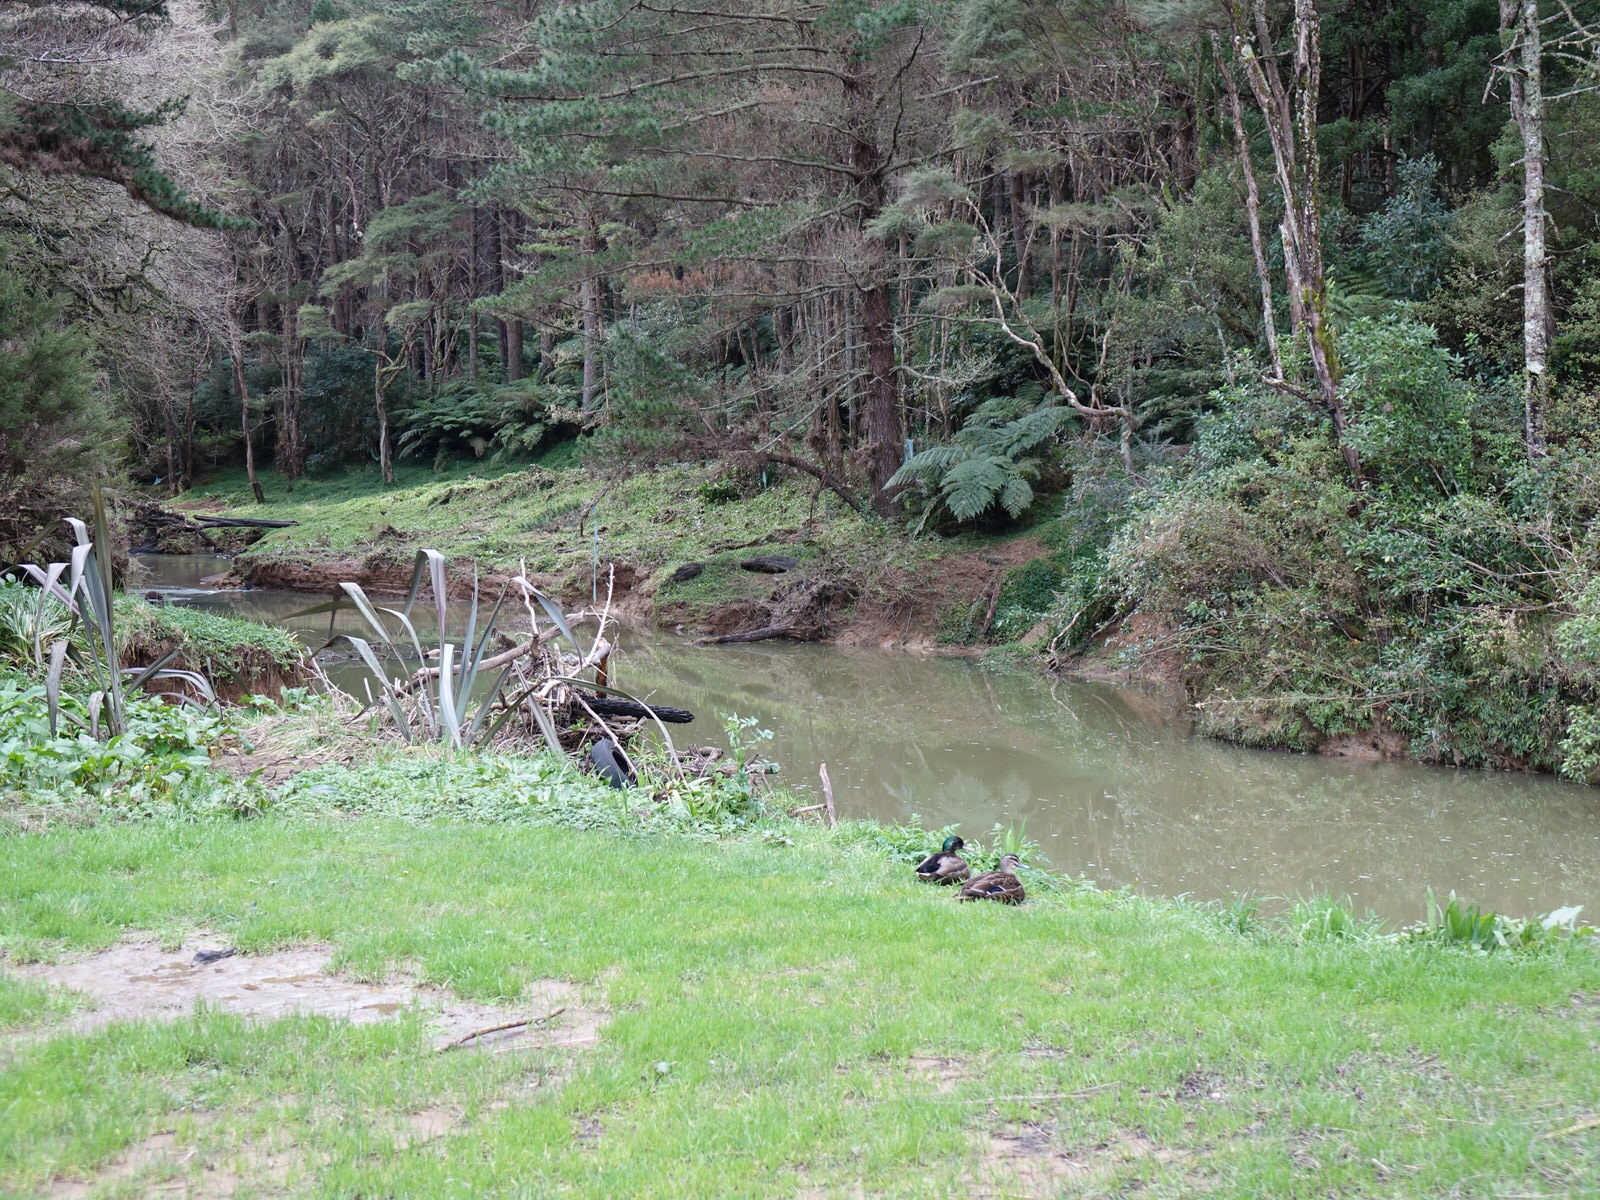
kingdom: Animalia
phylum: Chordata
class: Aves
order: Anseriformes
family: Anatidae
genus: Anas
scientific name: Anas platyrhynchos
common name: Mallard
